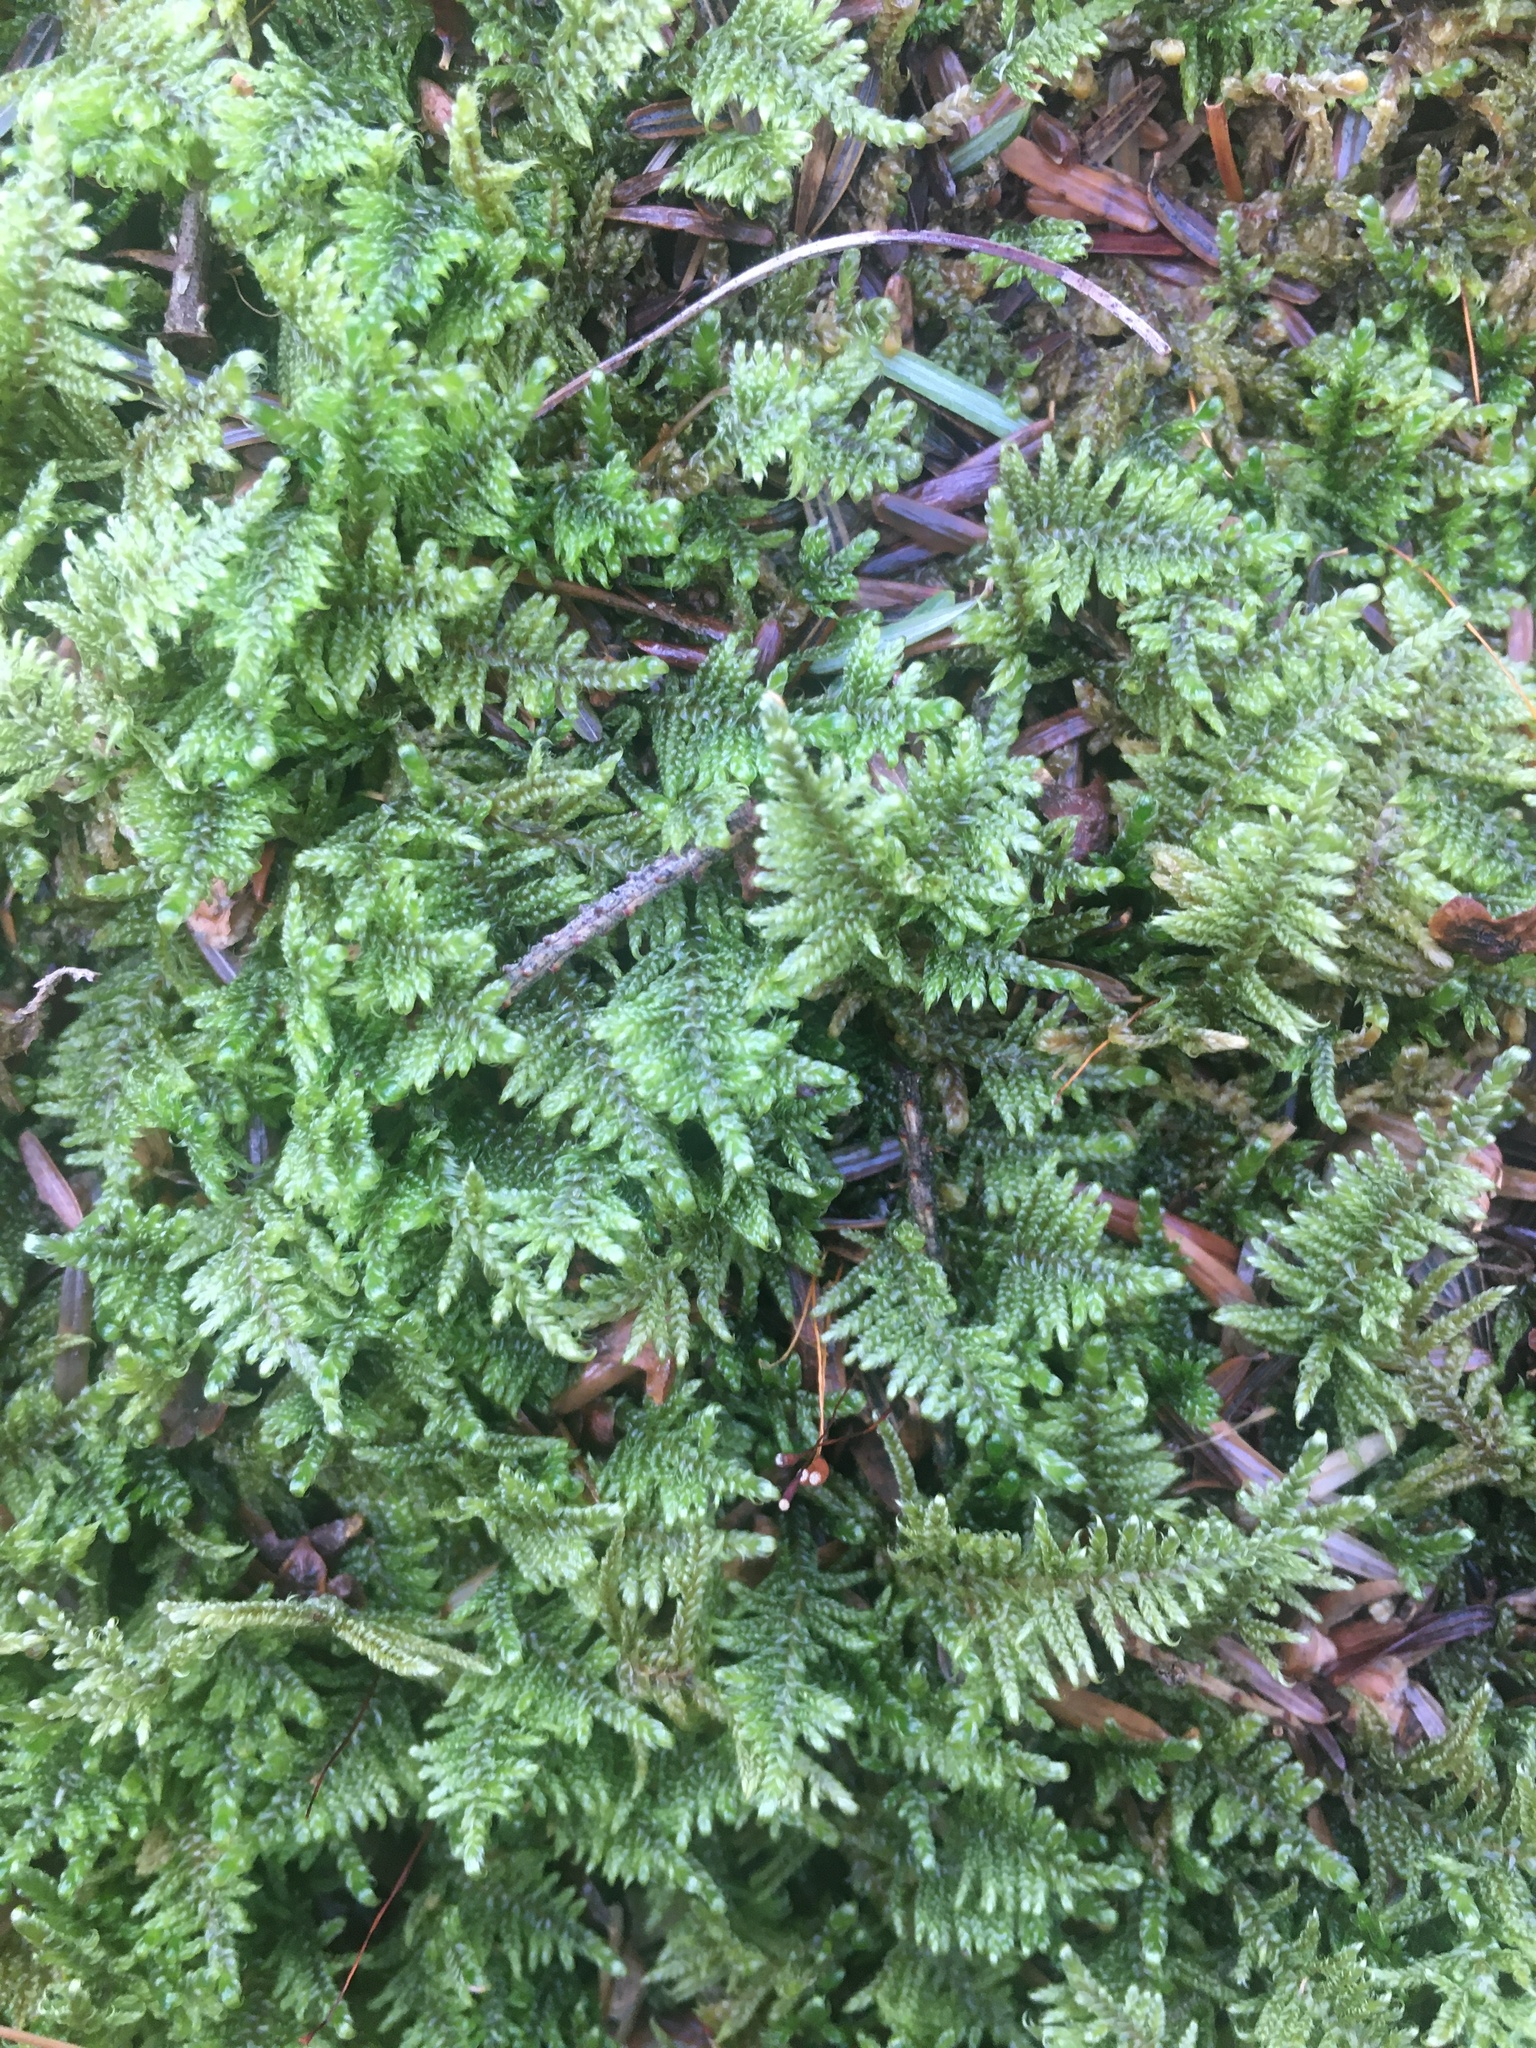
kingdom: Plantae
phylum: Bryophyta
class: Bryopsida
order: Hypnales
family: Callicladiaceae
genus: Callicladium
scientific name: Callicladium imponens
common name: Brocade moss
